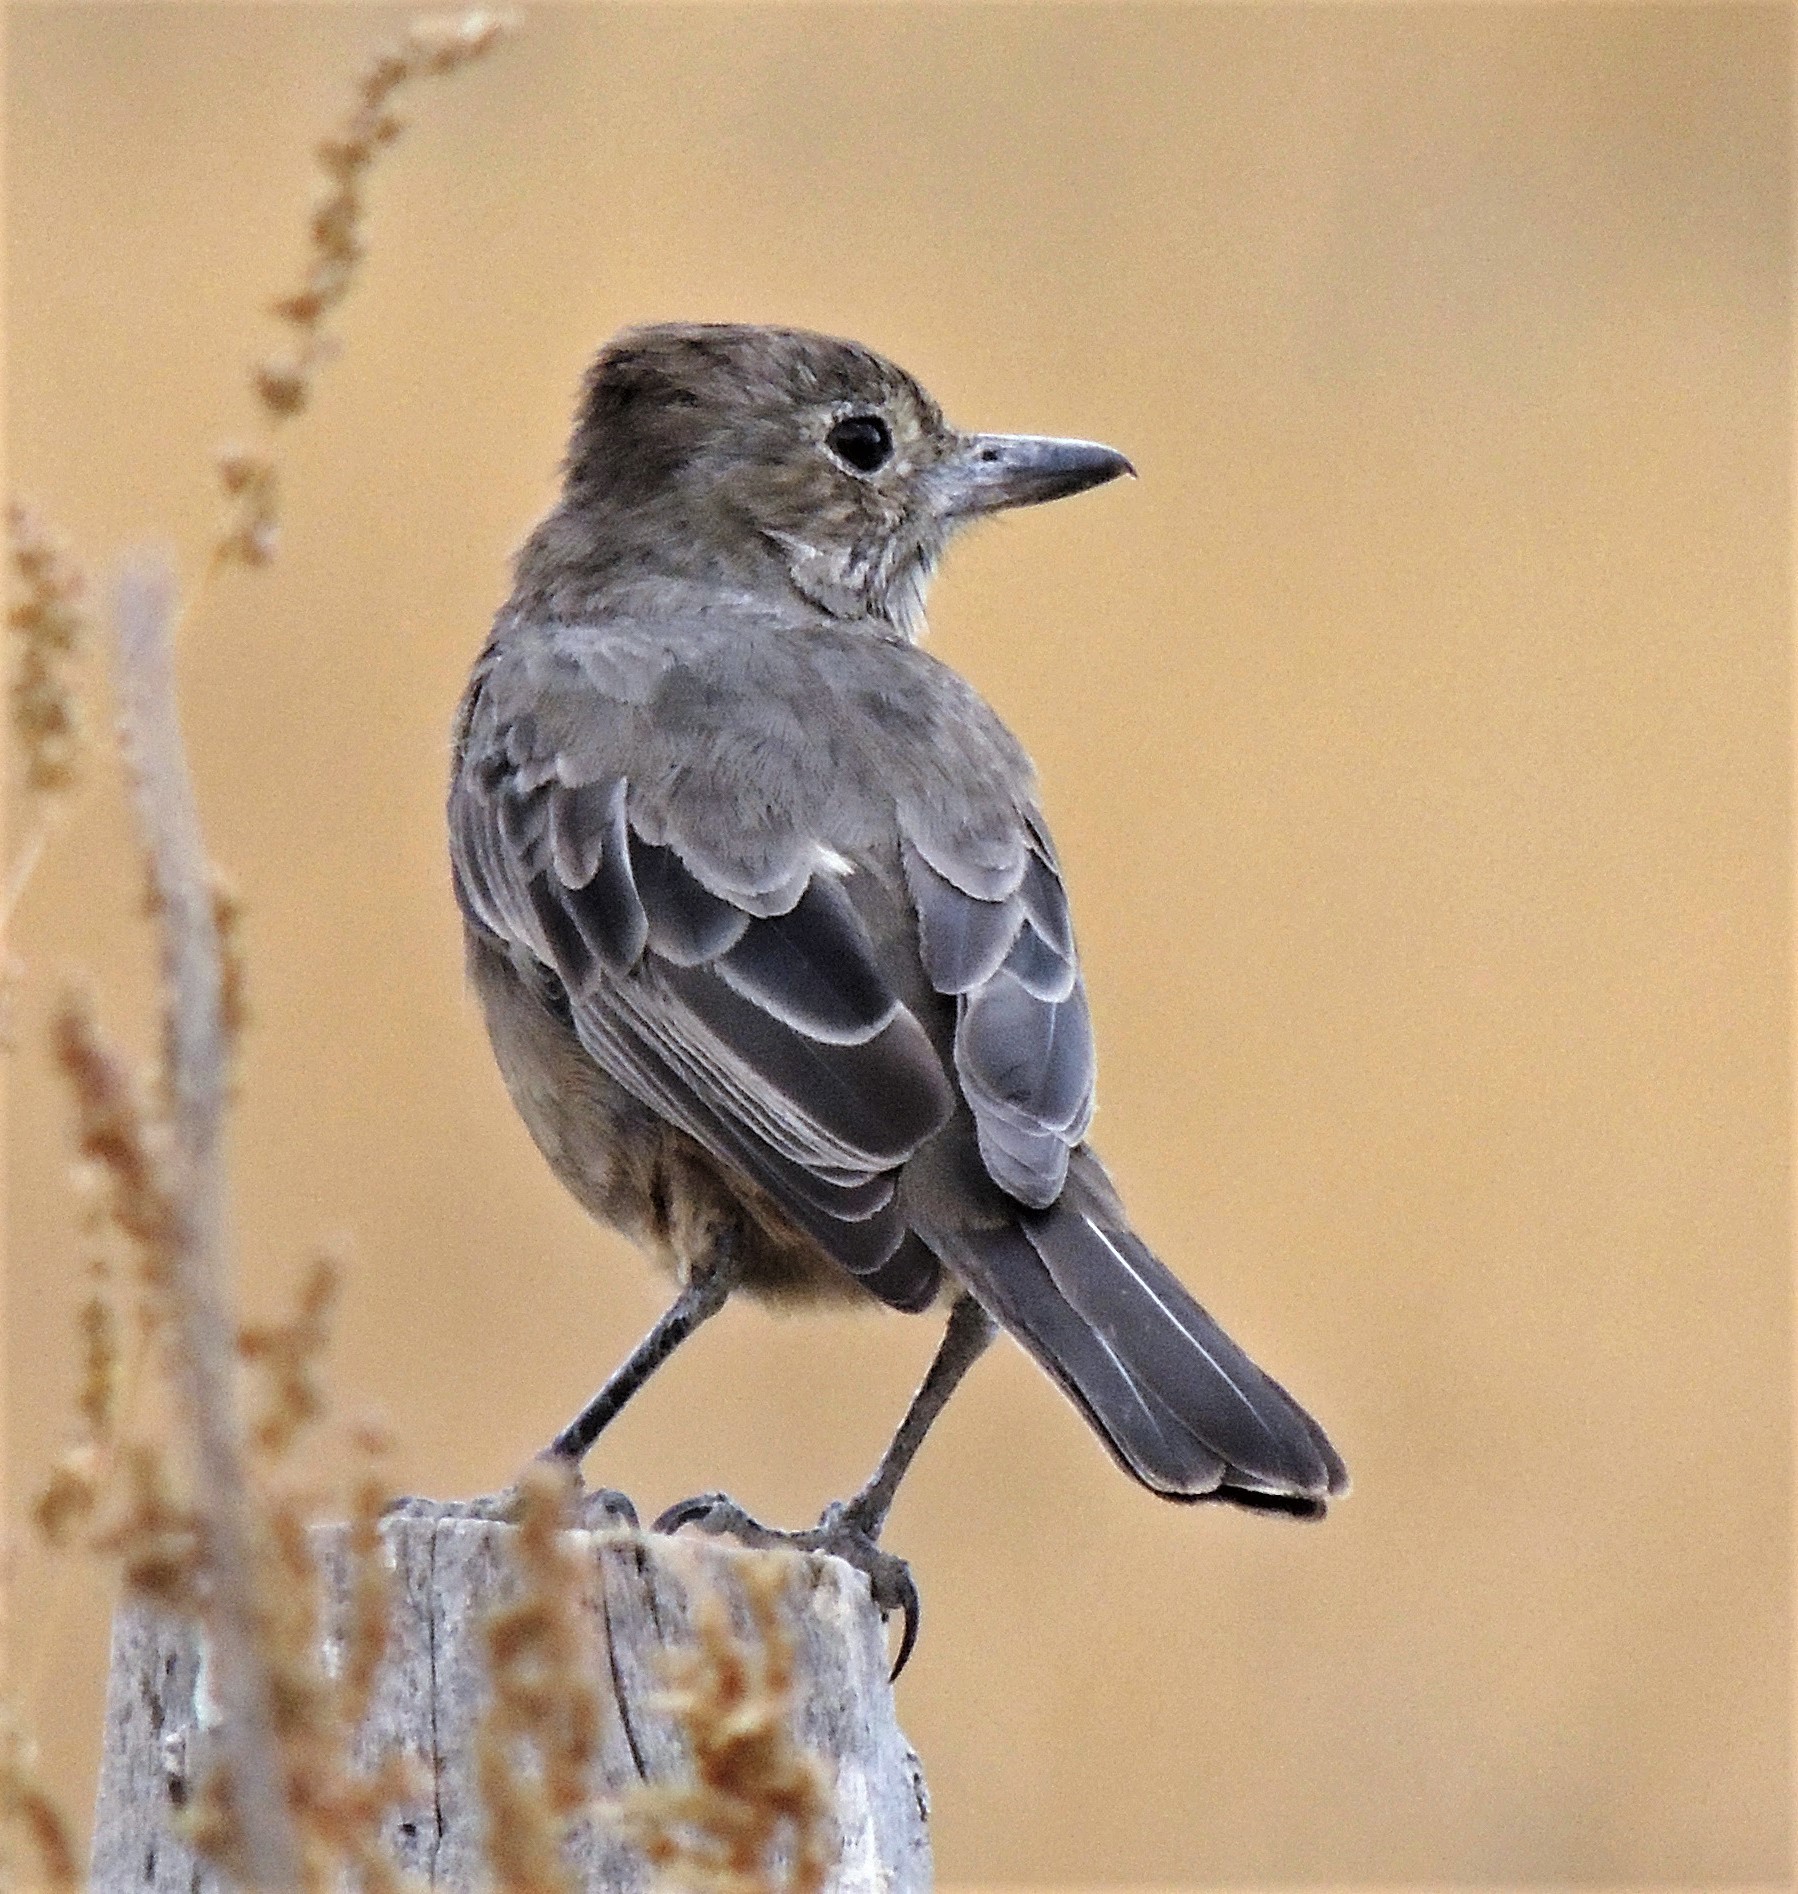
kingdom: Animalia
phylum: Chordata
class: Aves
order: Passeriformes
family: Tyrannidae
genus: Agriornis
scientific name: Agriornis lividus
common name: Great shrike-tyrant
